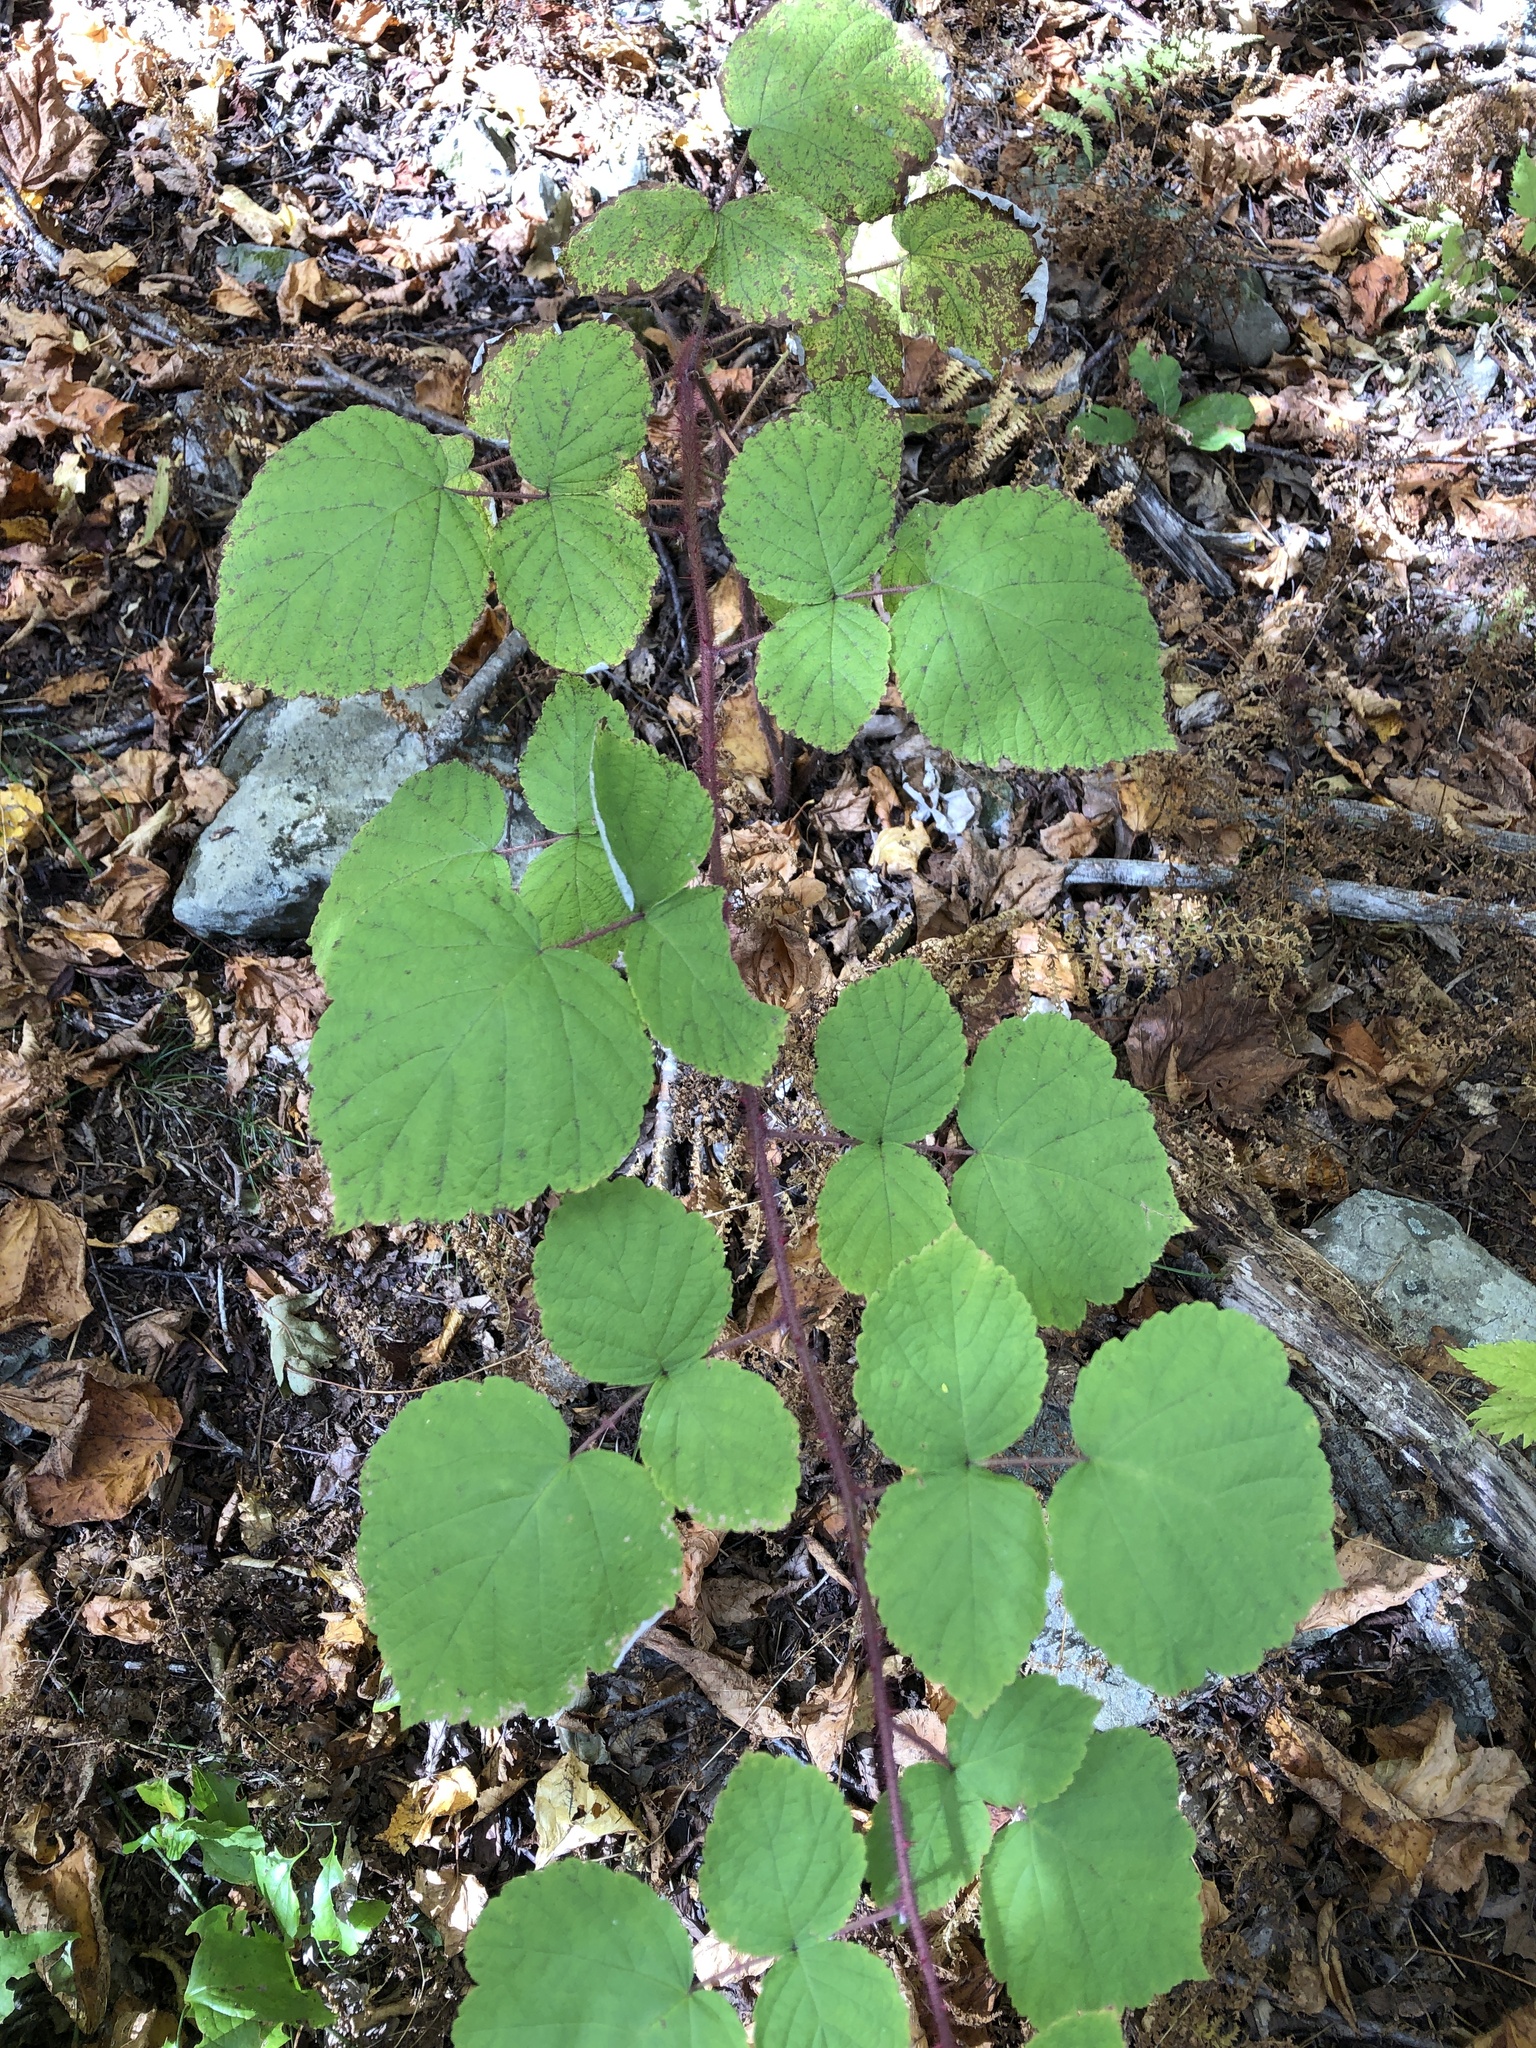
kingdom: Plantae
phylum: Tracheophyta
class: Magnoliopsida
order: Rosales
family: Rosaceae
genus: Rubus
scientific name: Rubus phoenicolasius
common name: Japanese wineberry
